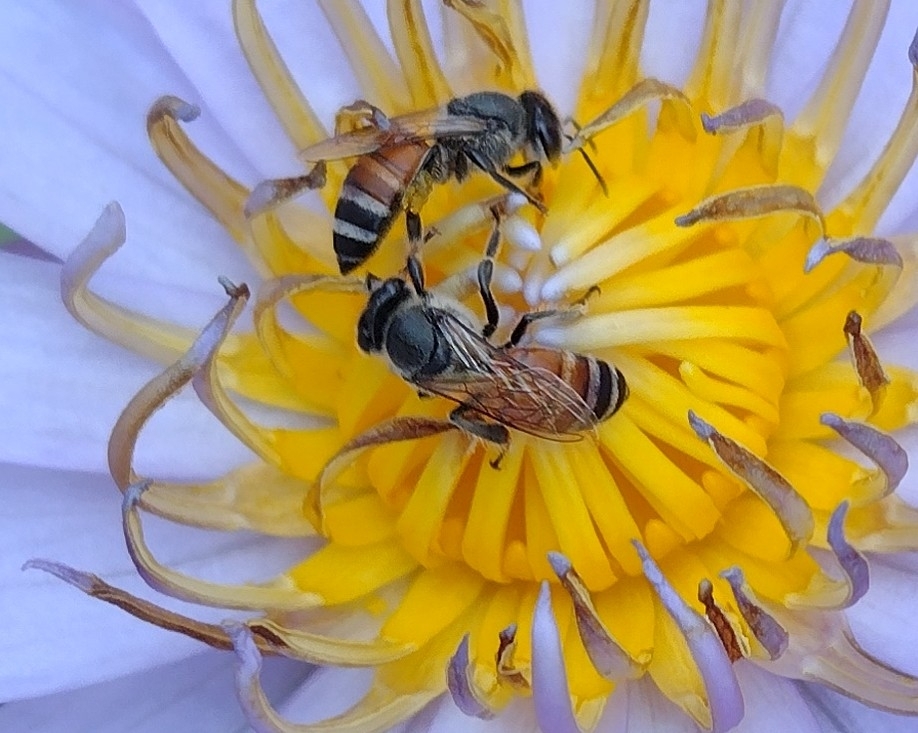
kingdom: Animalia
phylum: Arthropoda
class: Insecta
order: Hymenoptera
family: Apidae
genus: Apis
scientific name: Apis florea
